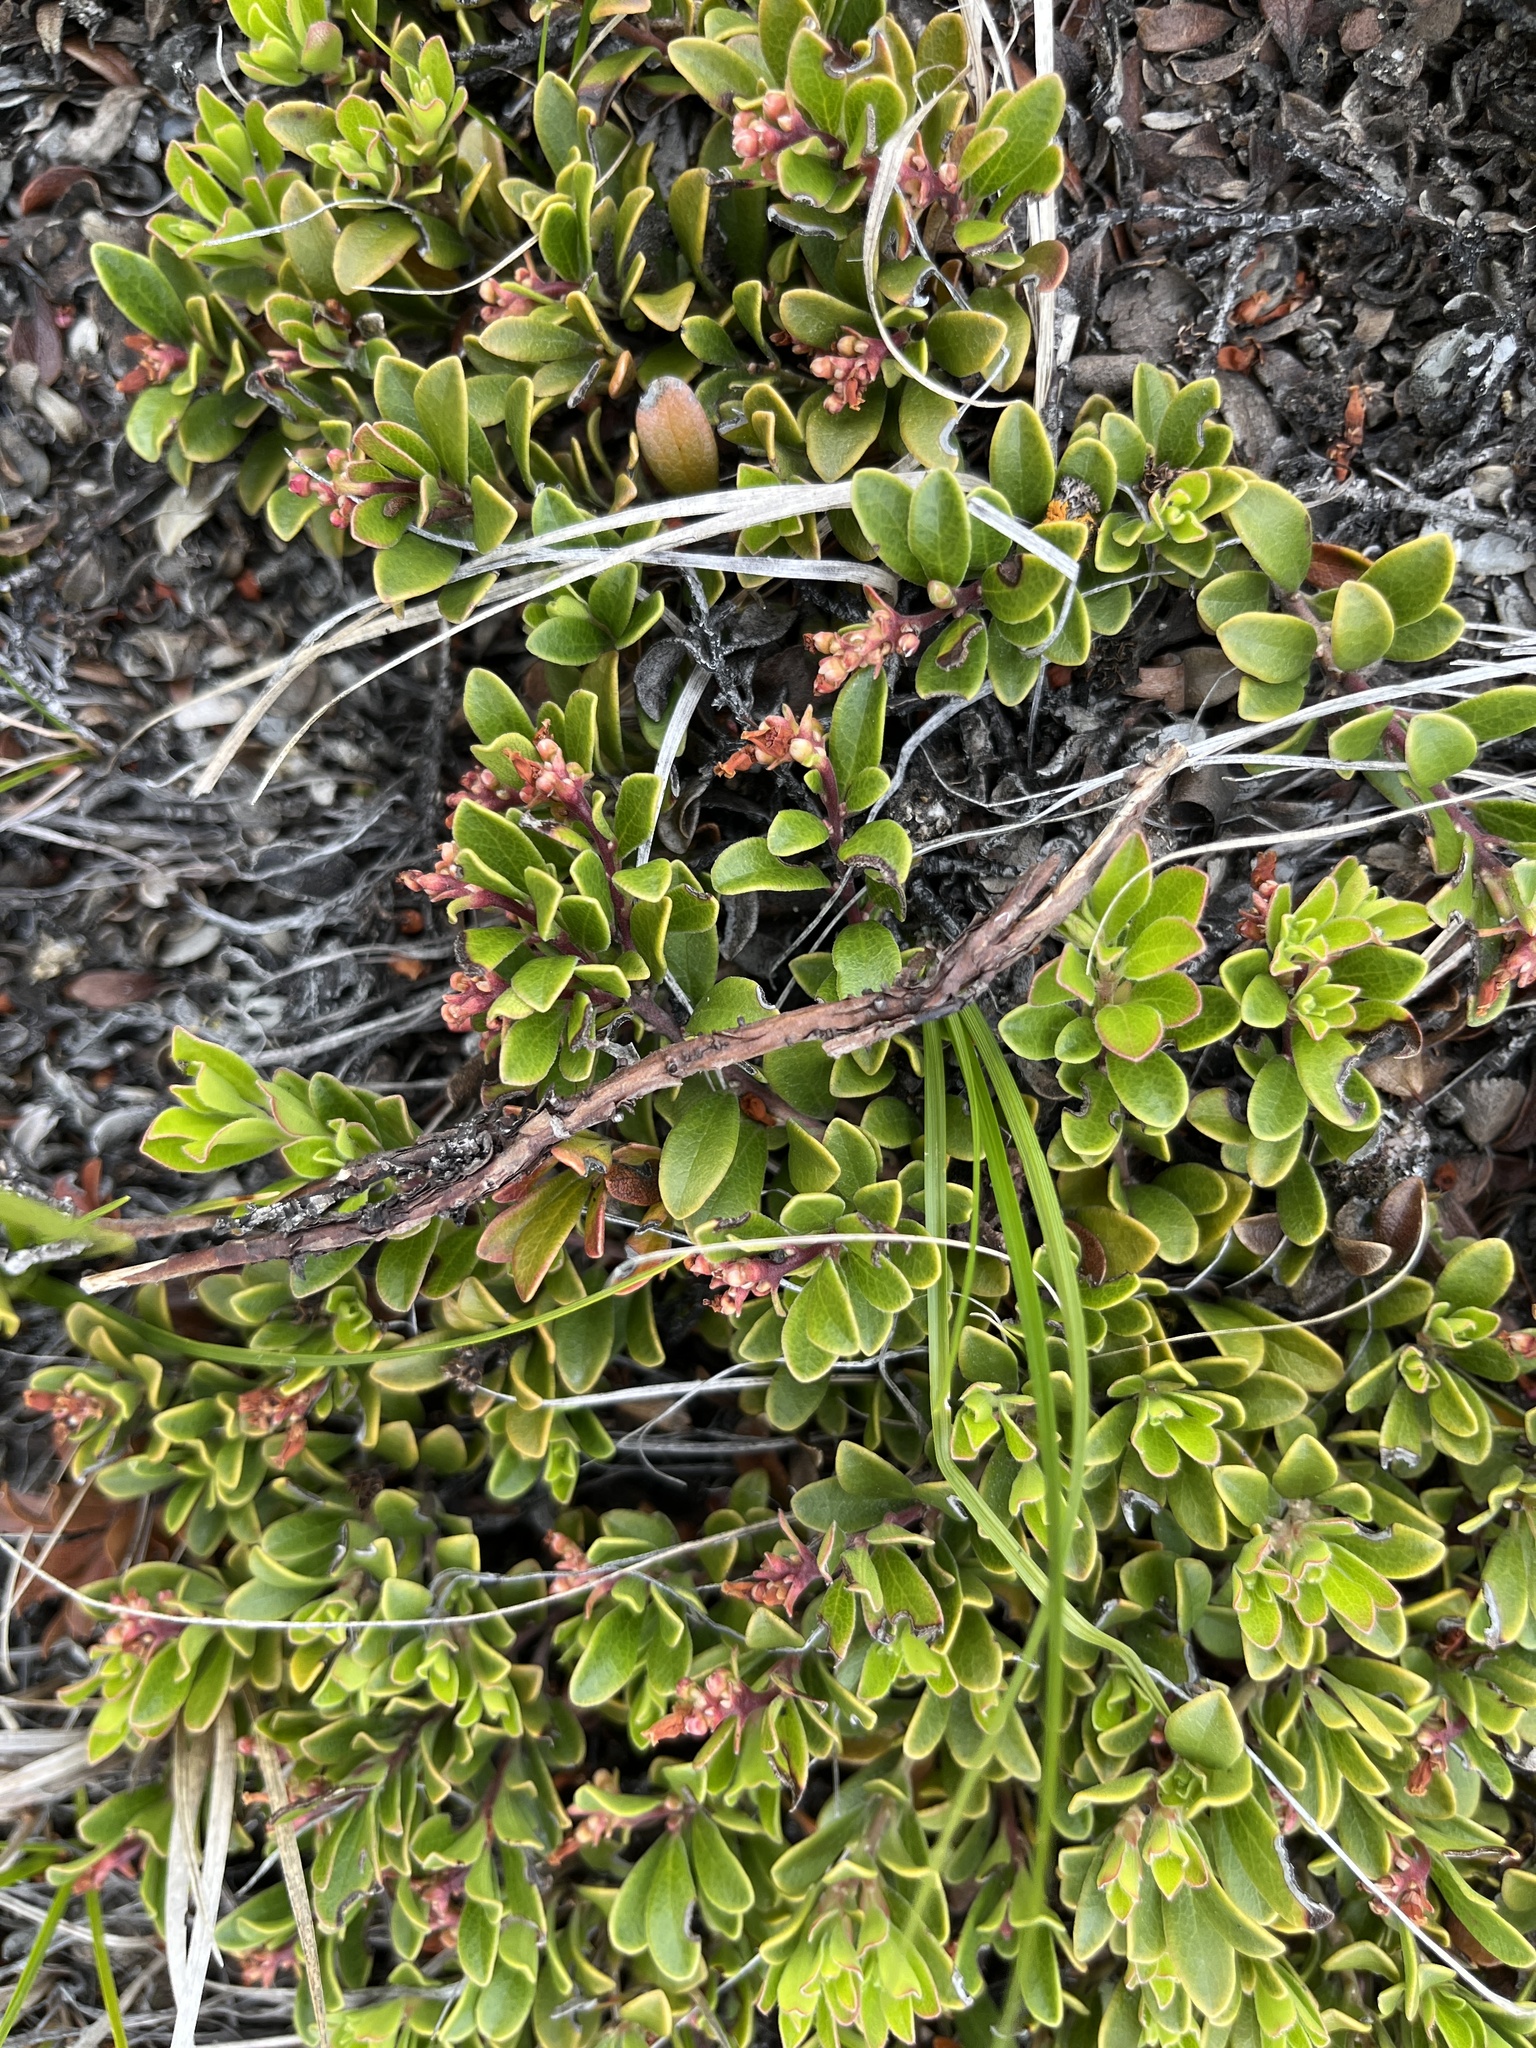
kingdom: Plantae
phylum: Tracheophyta
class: Magnoliopsida
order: Ericales
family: Ericaceae
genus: Arctostaphylos
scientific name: Arctostaphylos uva-ursi
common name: Bearberry
